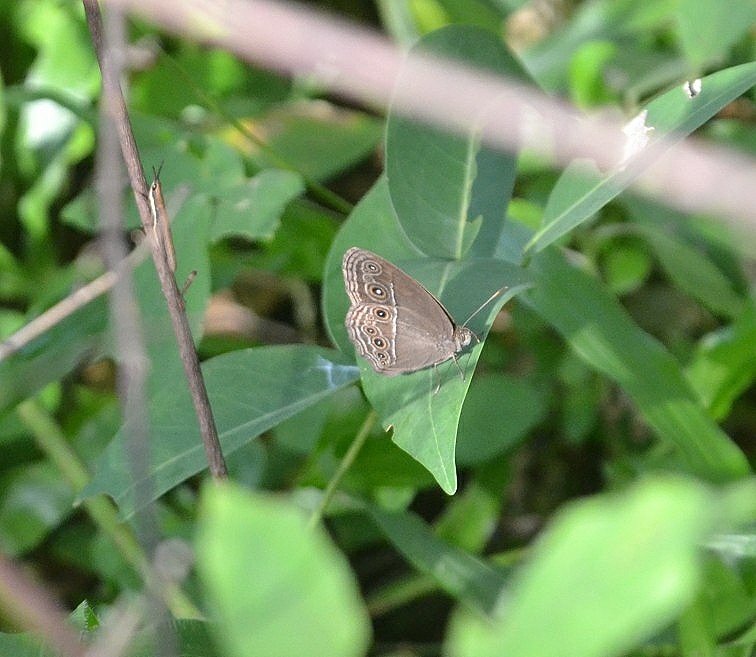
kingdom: Animalia
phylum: Arthropoda
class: Insecta
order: Lepidoptera
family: Nymphalidae
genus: Mycalesis
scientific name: Mycalesis mineus
